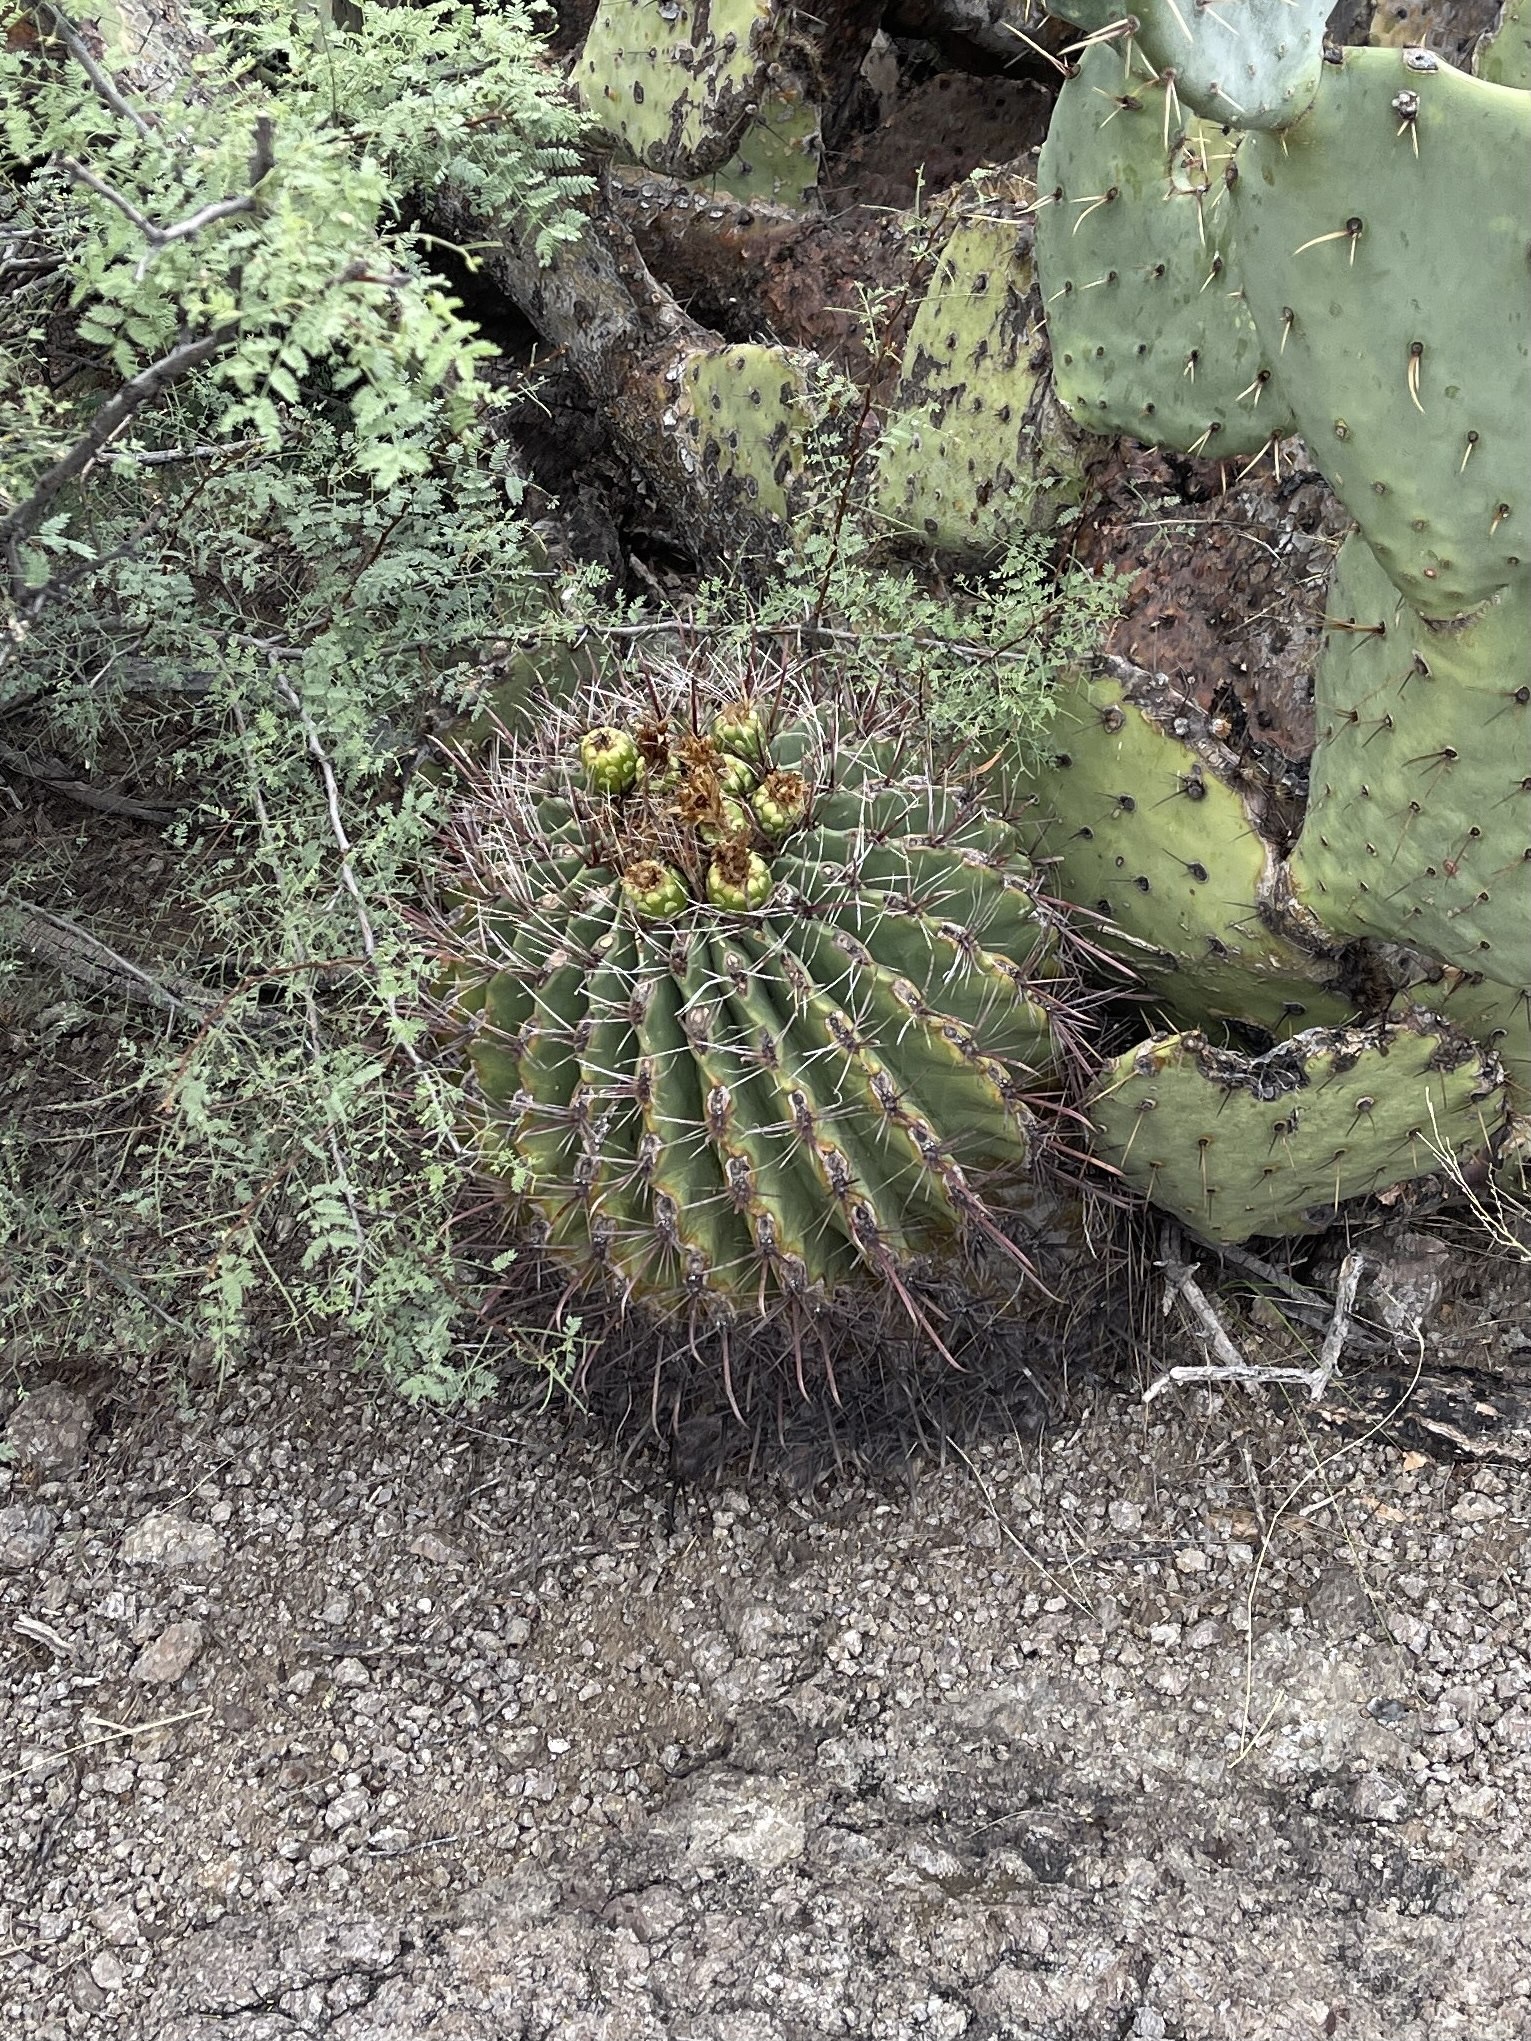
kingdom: Plantae
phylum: Tracheophyta
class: Magnoliopsida
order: Caryophyllales
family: Cactaceae
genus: Ferocactus
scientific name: Ferocactus wislizeni
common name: Candy barrel cactus
